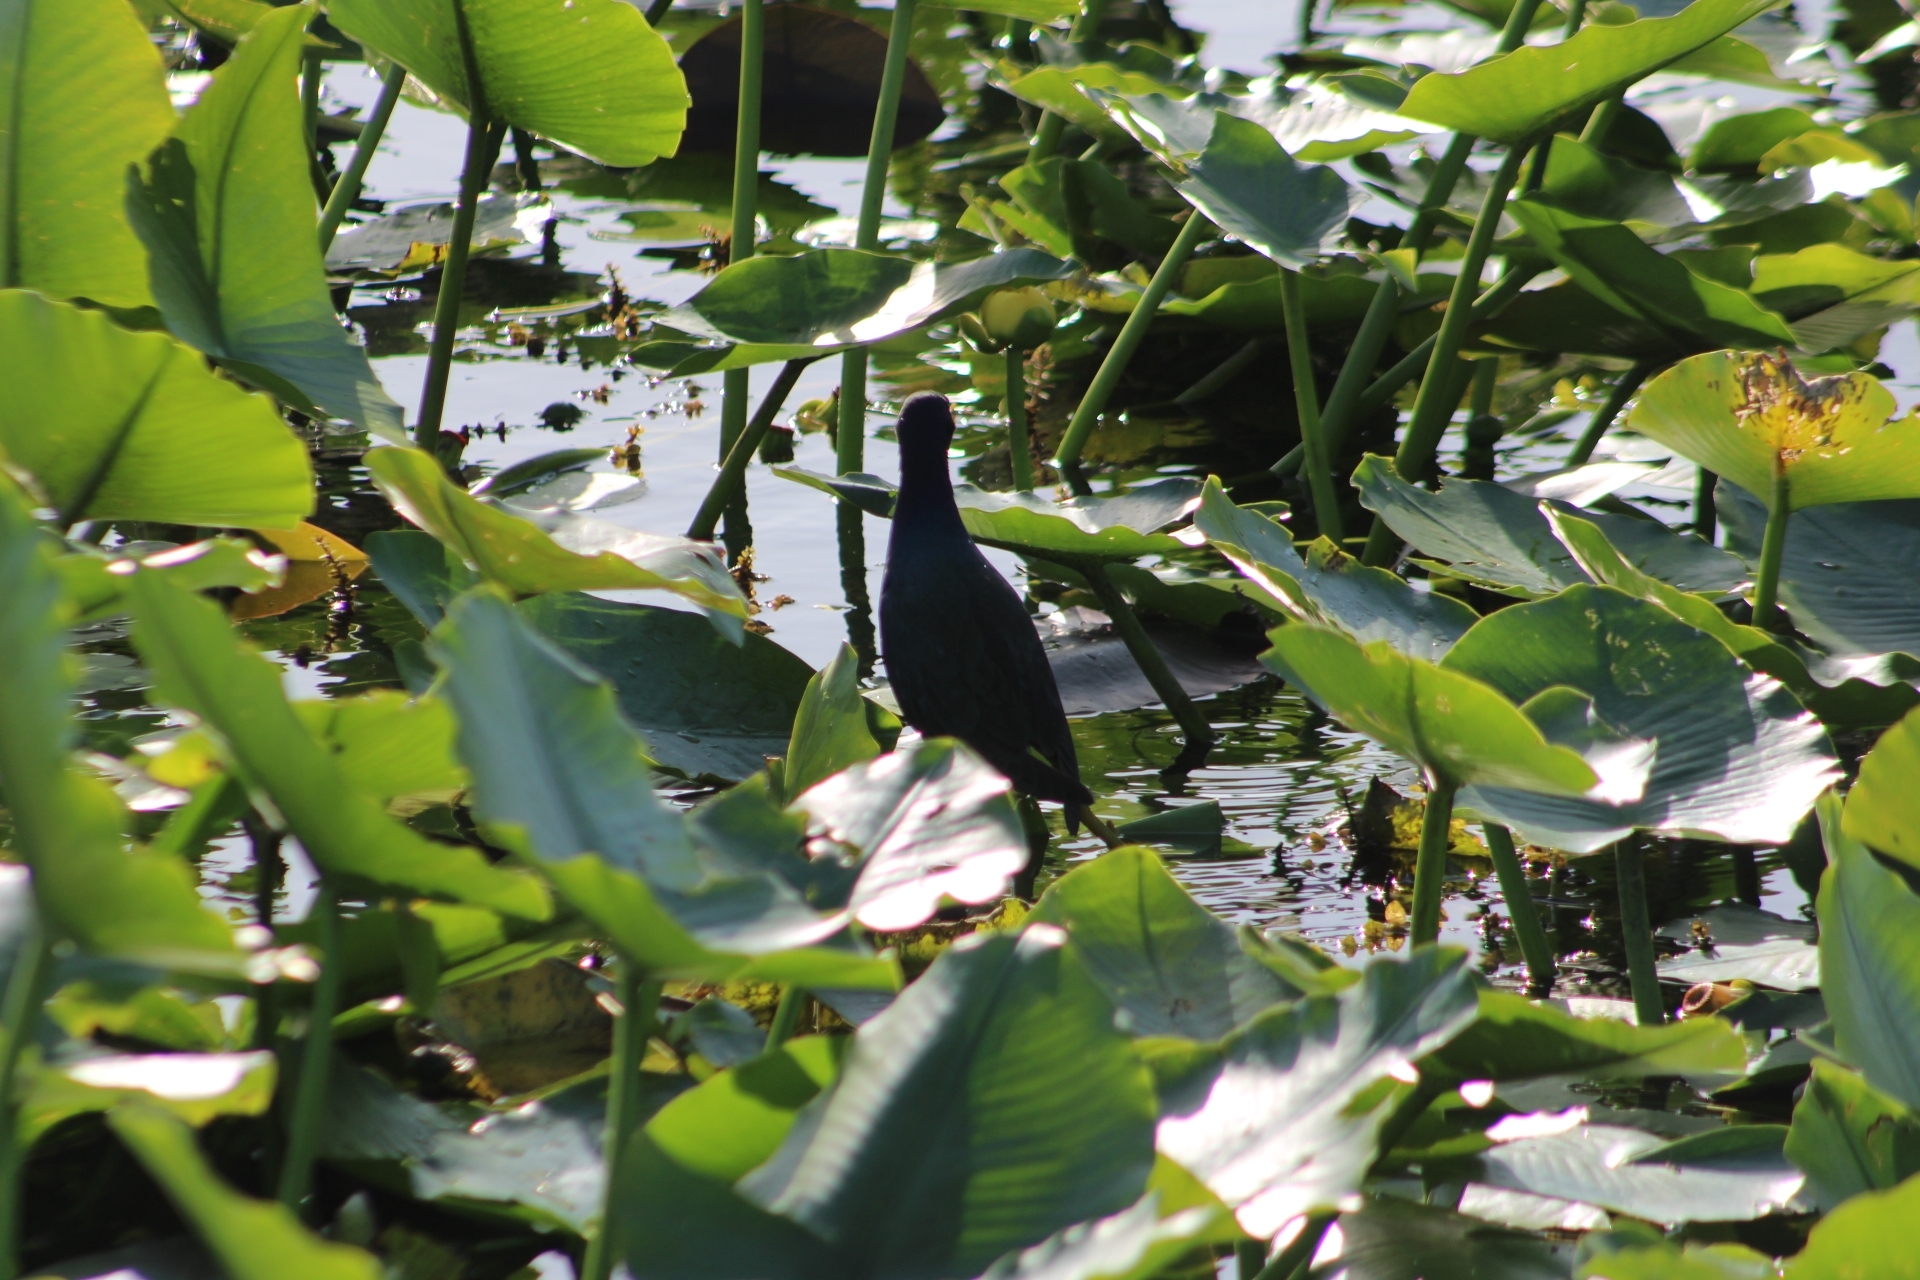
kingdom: Animalia
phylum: Chordata
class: Aves
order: Gruiformes
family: Rallidae
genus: Porphyrio
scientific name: Porphyrio martinica
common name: Purple gallinule
